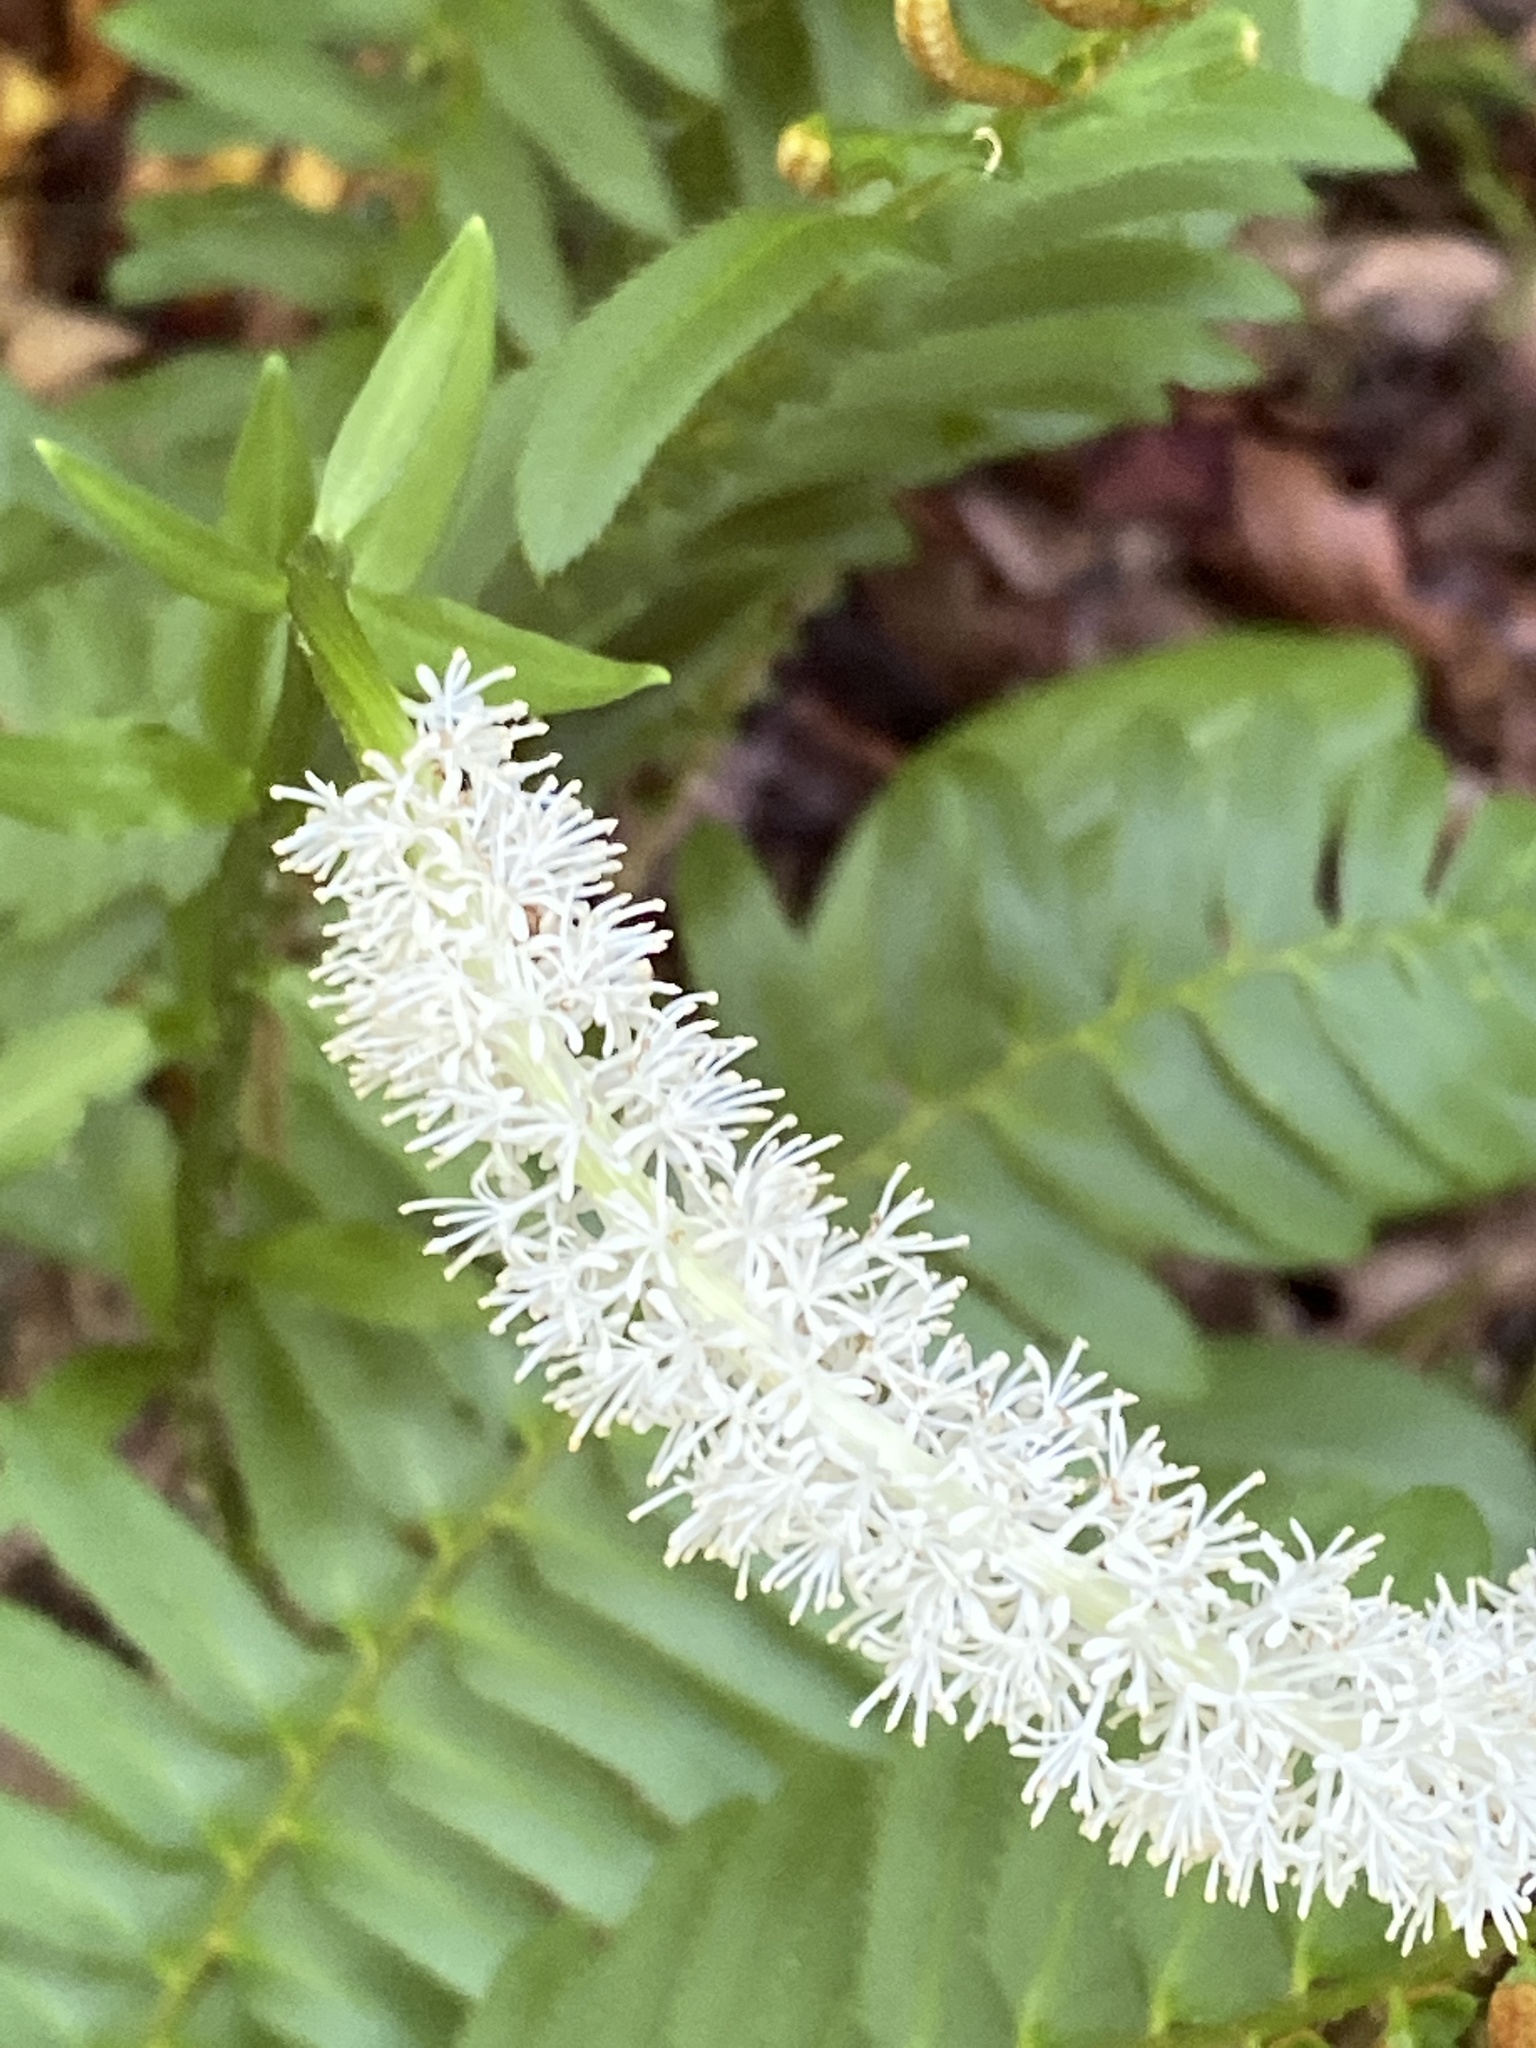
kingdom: Plantae
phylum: Tracheophyta
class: Liliopsida
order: Liliales
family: Melanthiaceae
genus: Chamaelirium
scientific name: Chamaelirium luteum
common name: Fairy-wand
